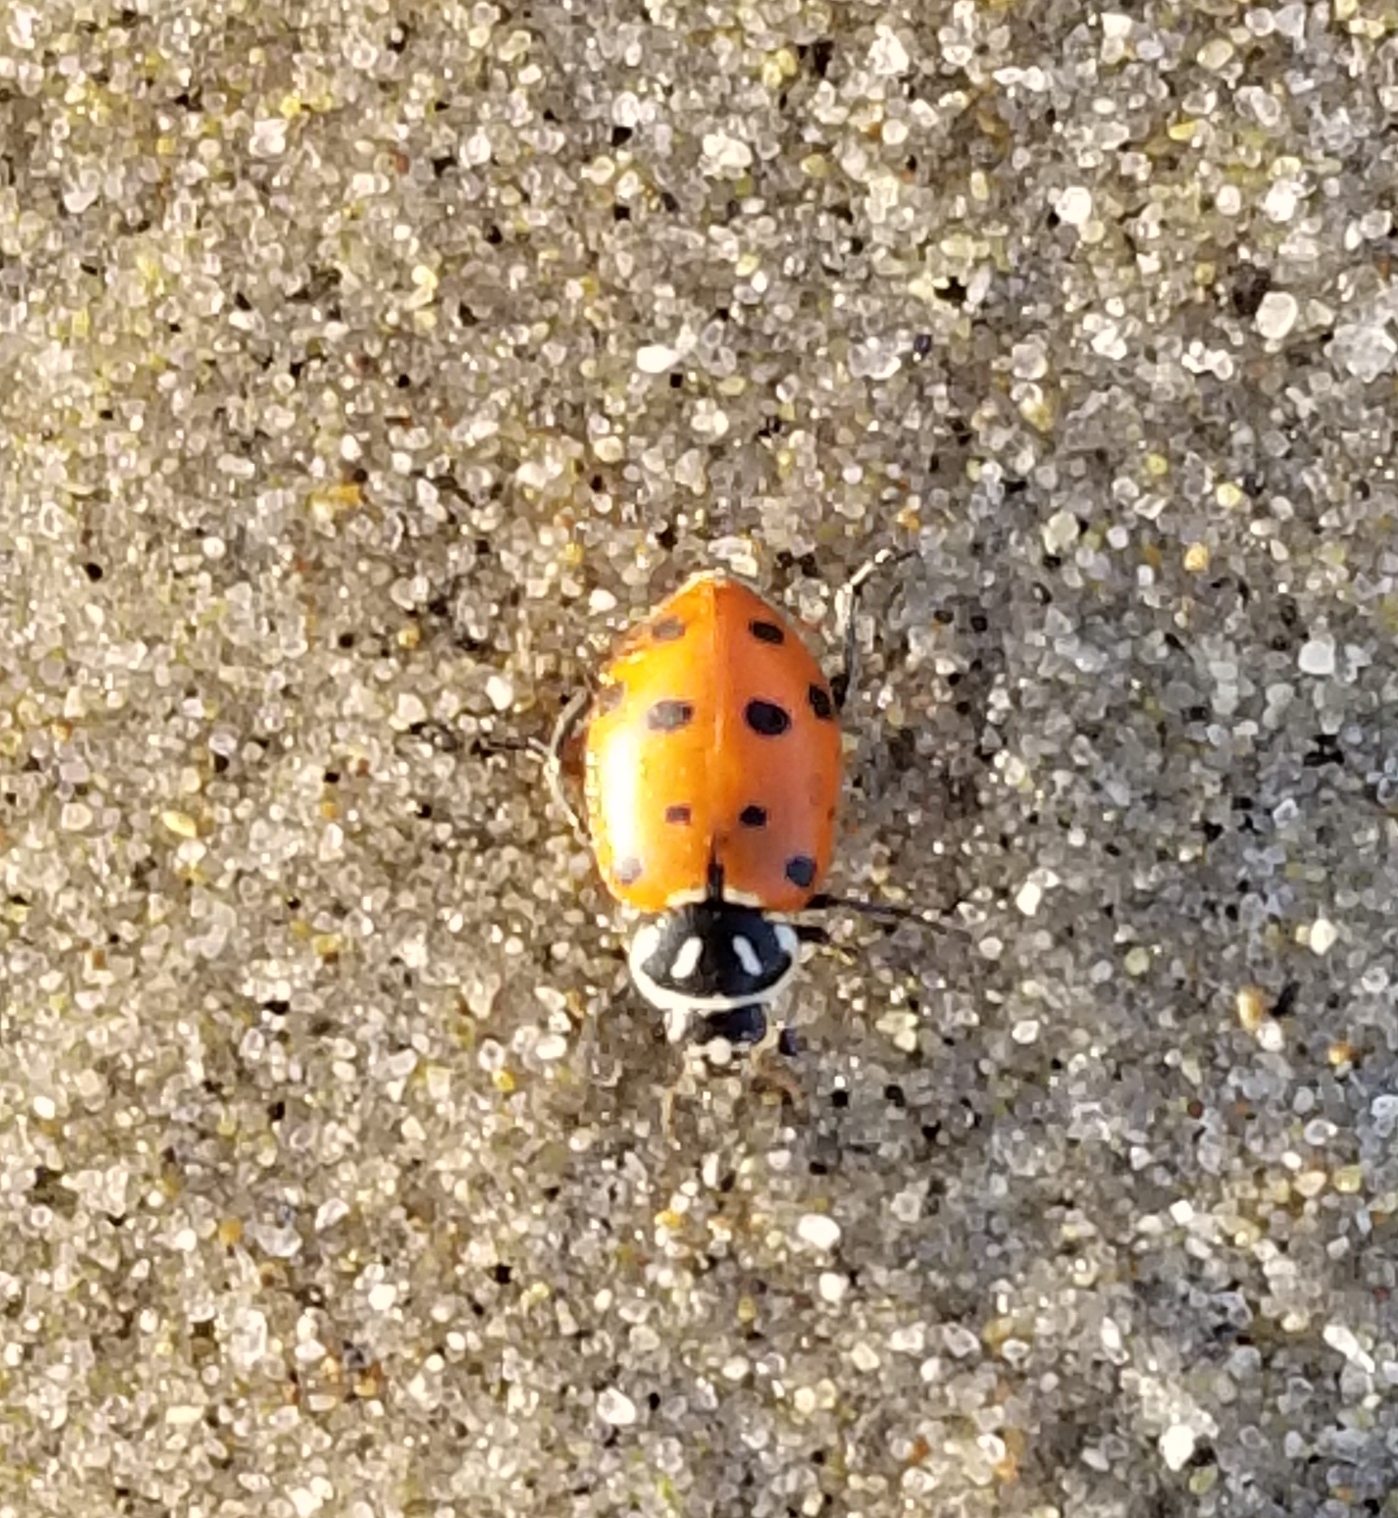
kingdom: Animalia
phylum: Arthropoda
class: Insecta
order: Coleoptera
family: Coccinellidae
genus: Hippodamia
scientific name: Hippodamia convergens
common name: Convergent lady beetle
